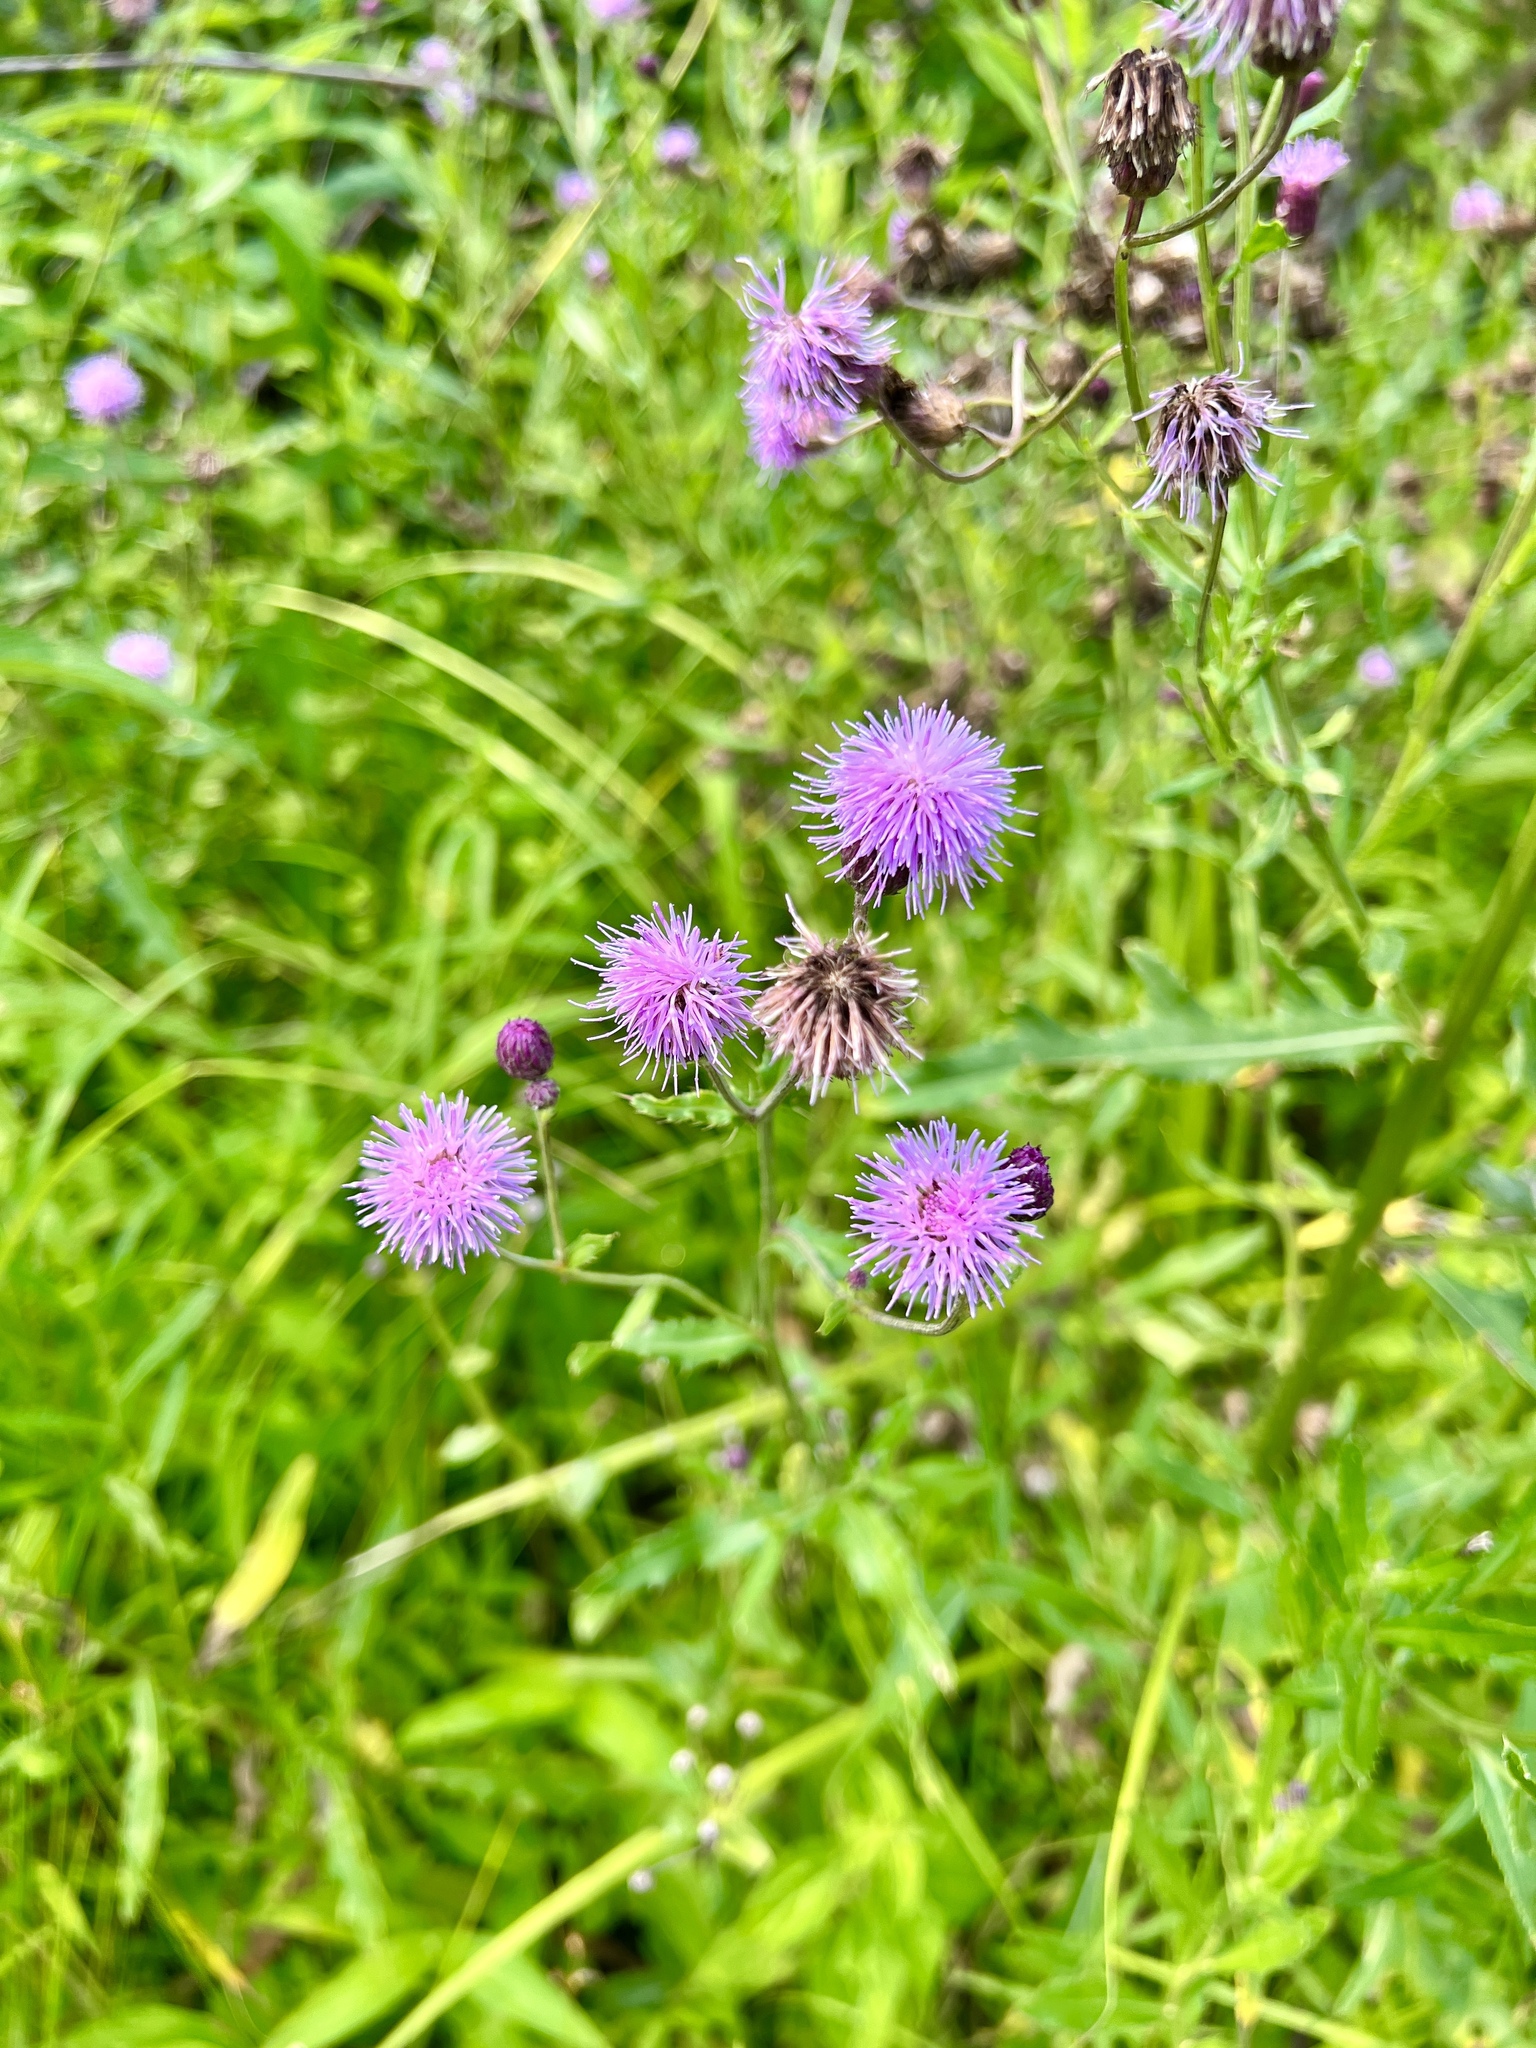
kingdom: Plantae
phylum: Tracheophyta
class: Magnoliopsida
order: Asterales
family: Asteraceae
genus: Cirsium
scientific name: Cirsium arvense
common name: Creeping thistle
